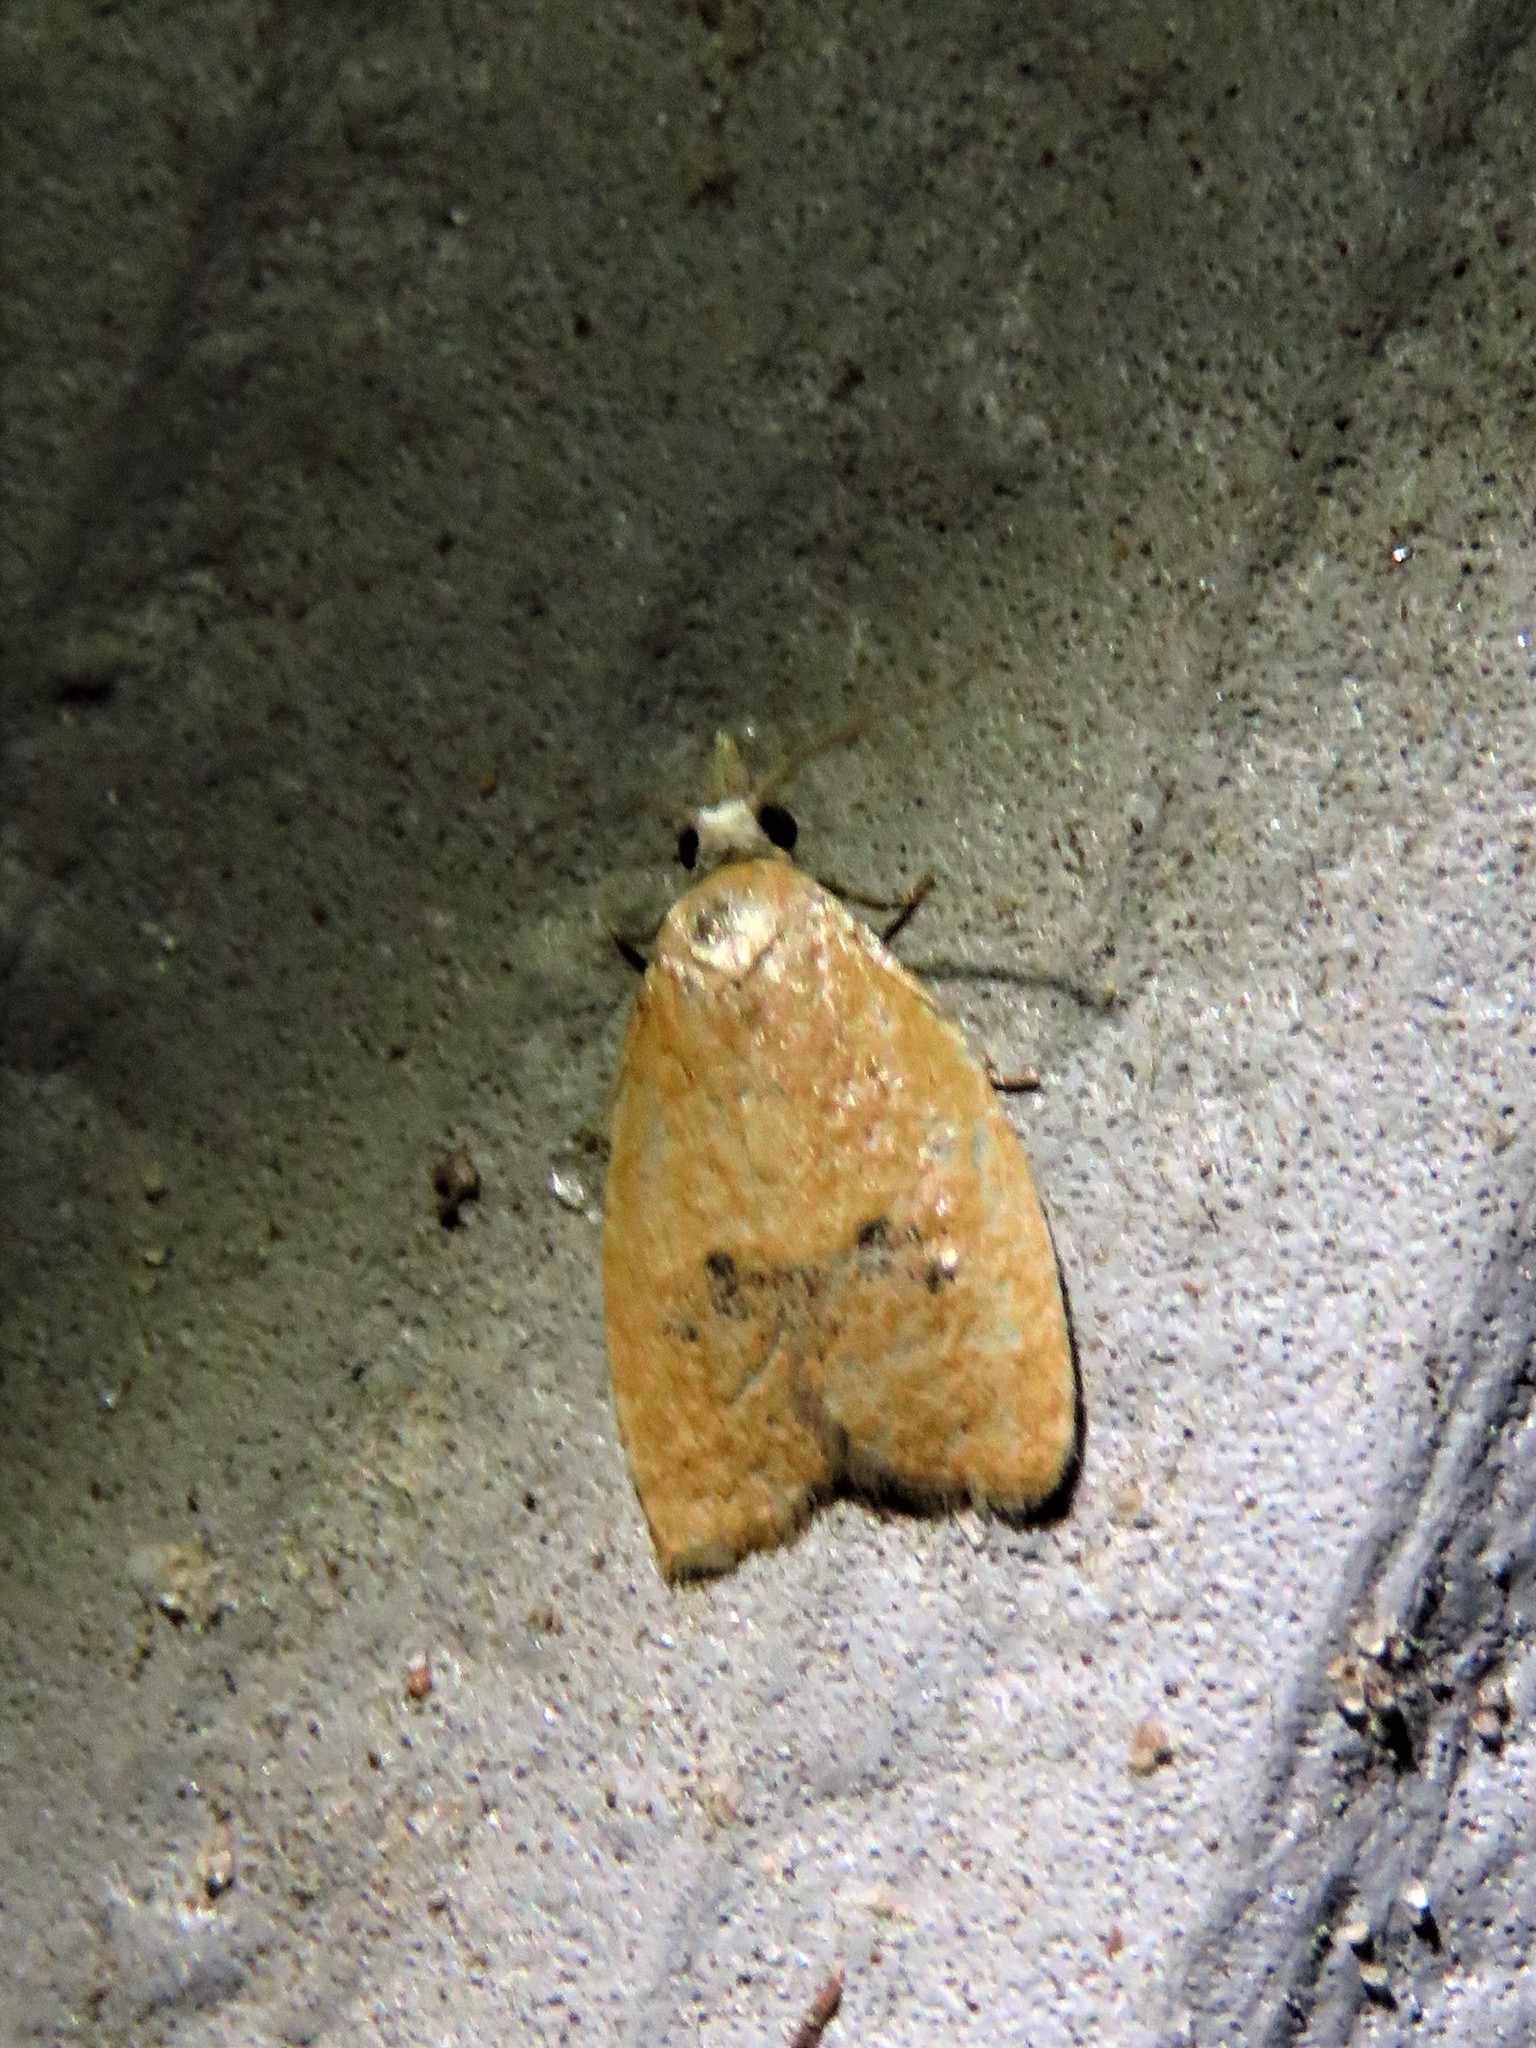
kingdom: Animalia
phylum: Arthropoda
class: Insecta
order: Lepidoptera
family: Tortricidae
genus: Sparganothoides
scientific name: Sparganothoides lentiginosana
